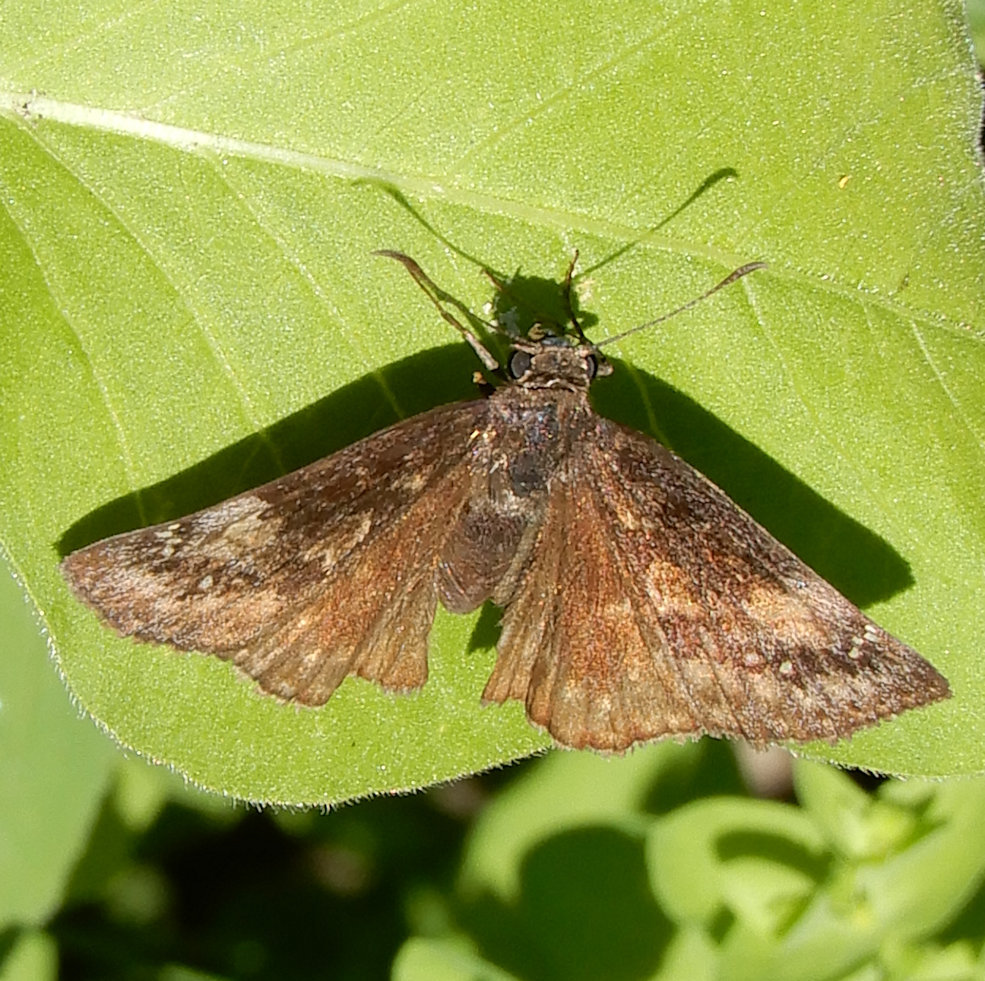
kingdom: Animalia
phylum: Arthropoda
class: Insecta
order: Lepidoptera
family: Hesperiidae
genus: Erynnis
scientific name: Erynnis baptisiae
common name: Wild indigo duskywing
